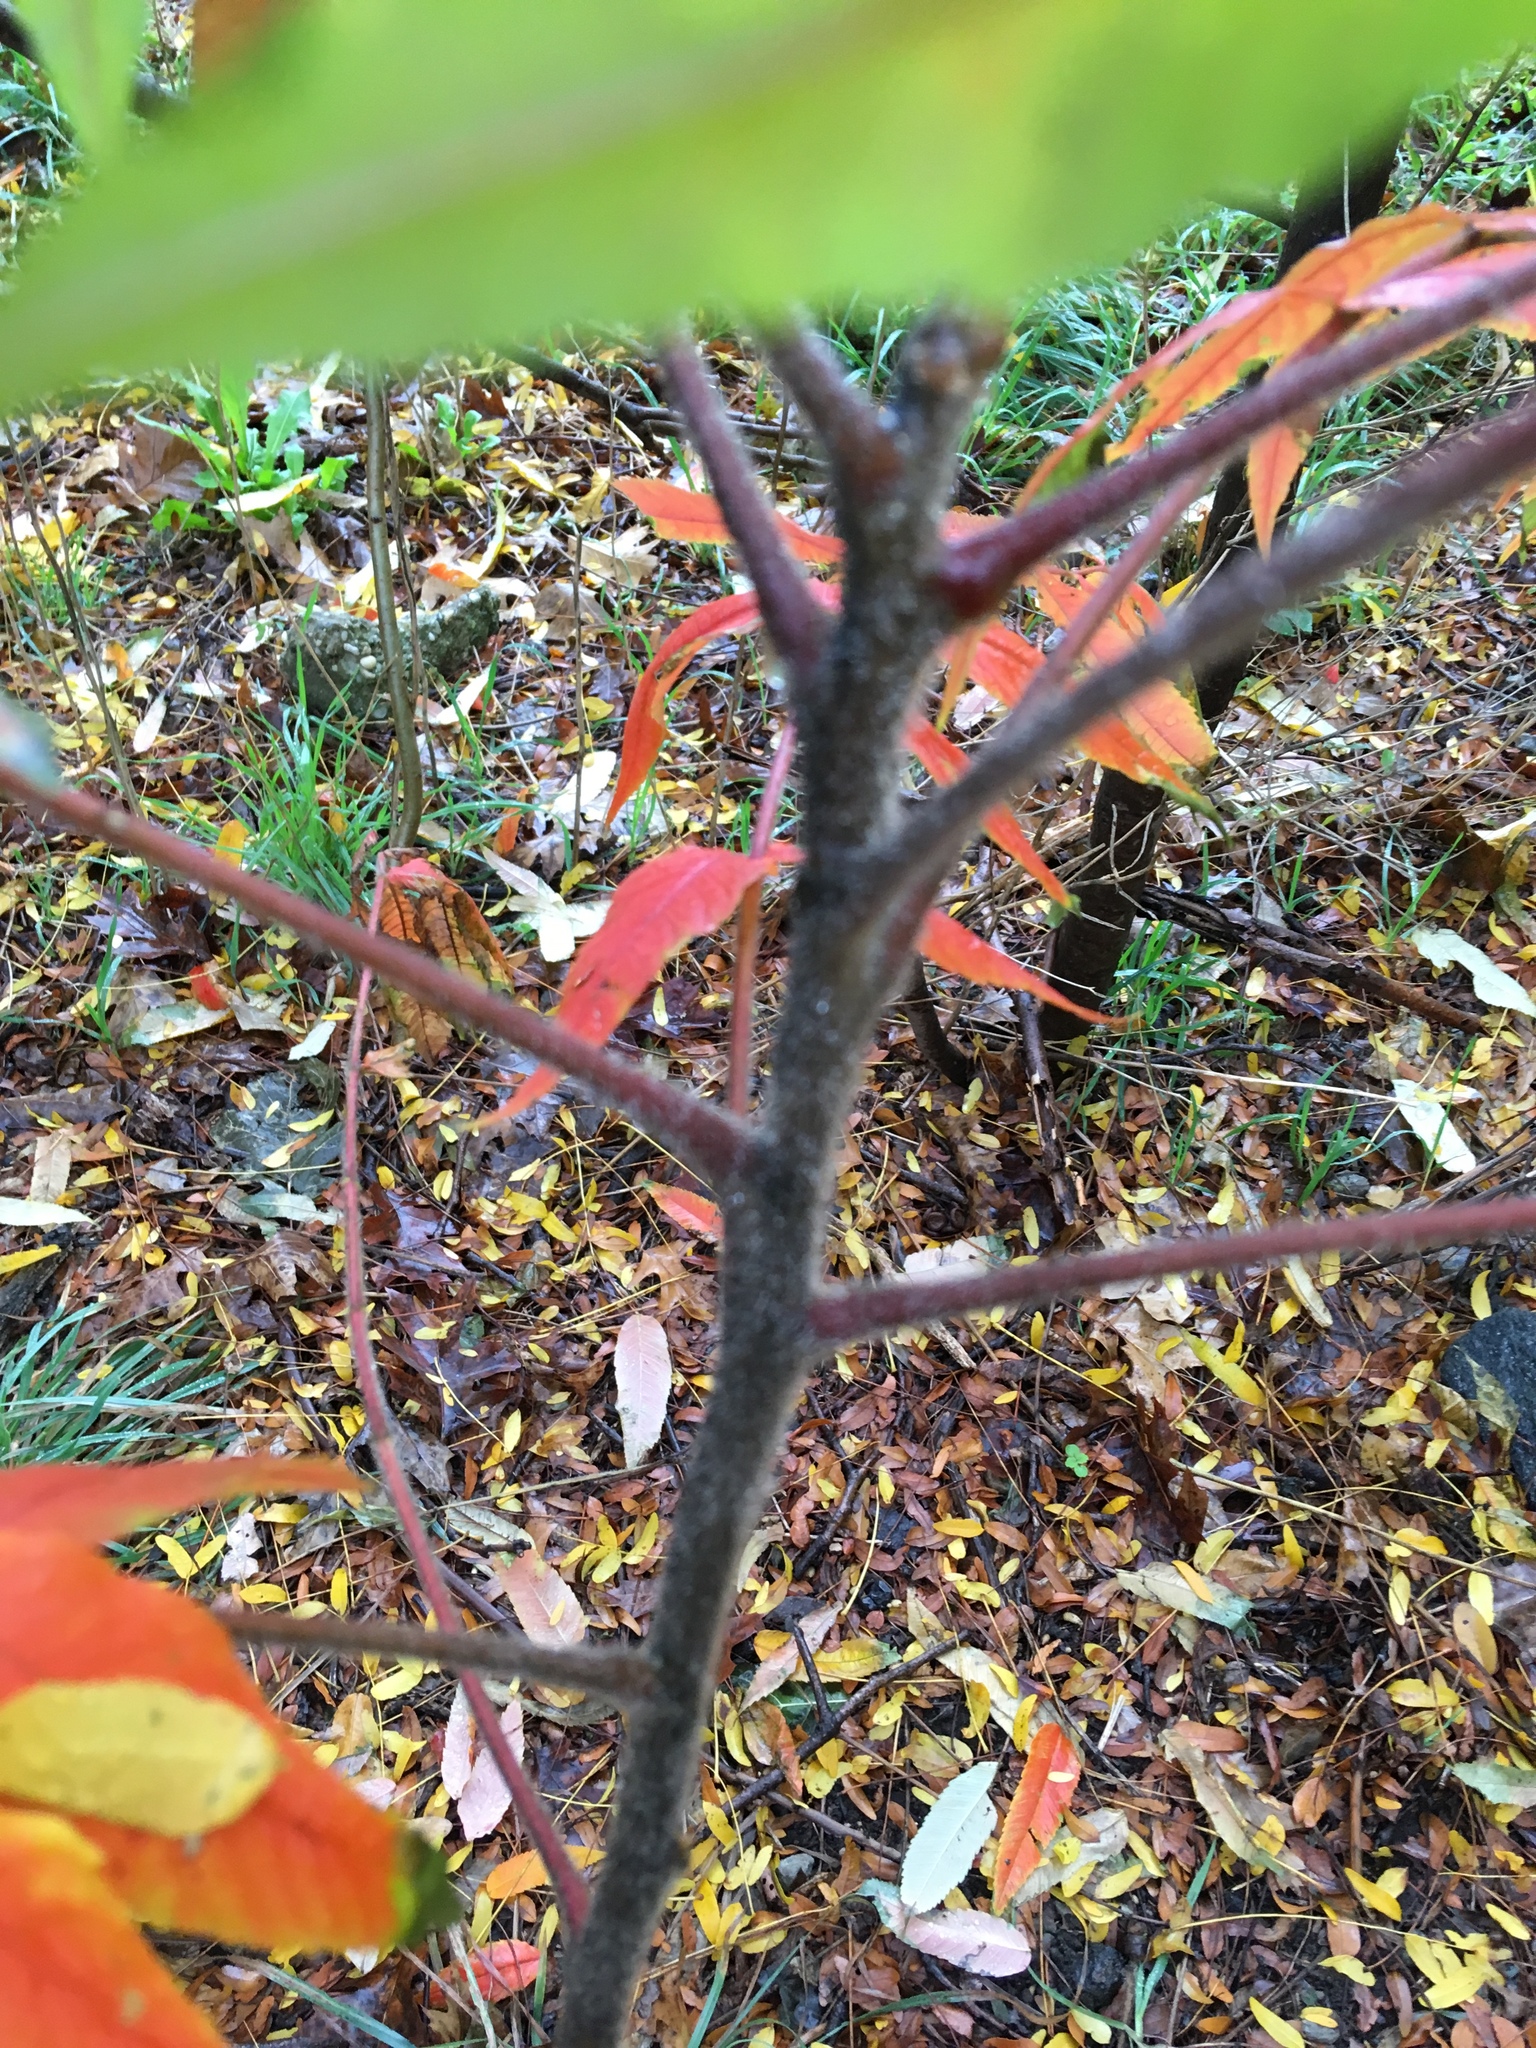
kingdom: Plantae
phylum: Tracheophyta
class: Magnoliopsida
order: Sapindales
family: Anacardiaceae
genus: Rhus
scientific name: Rhus typhina
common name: Staghorn sumac
